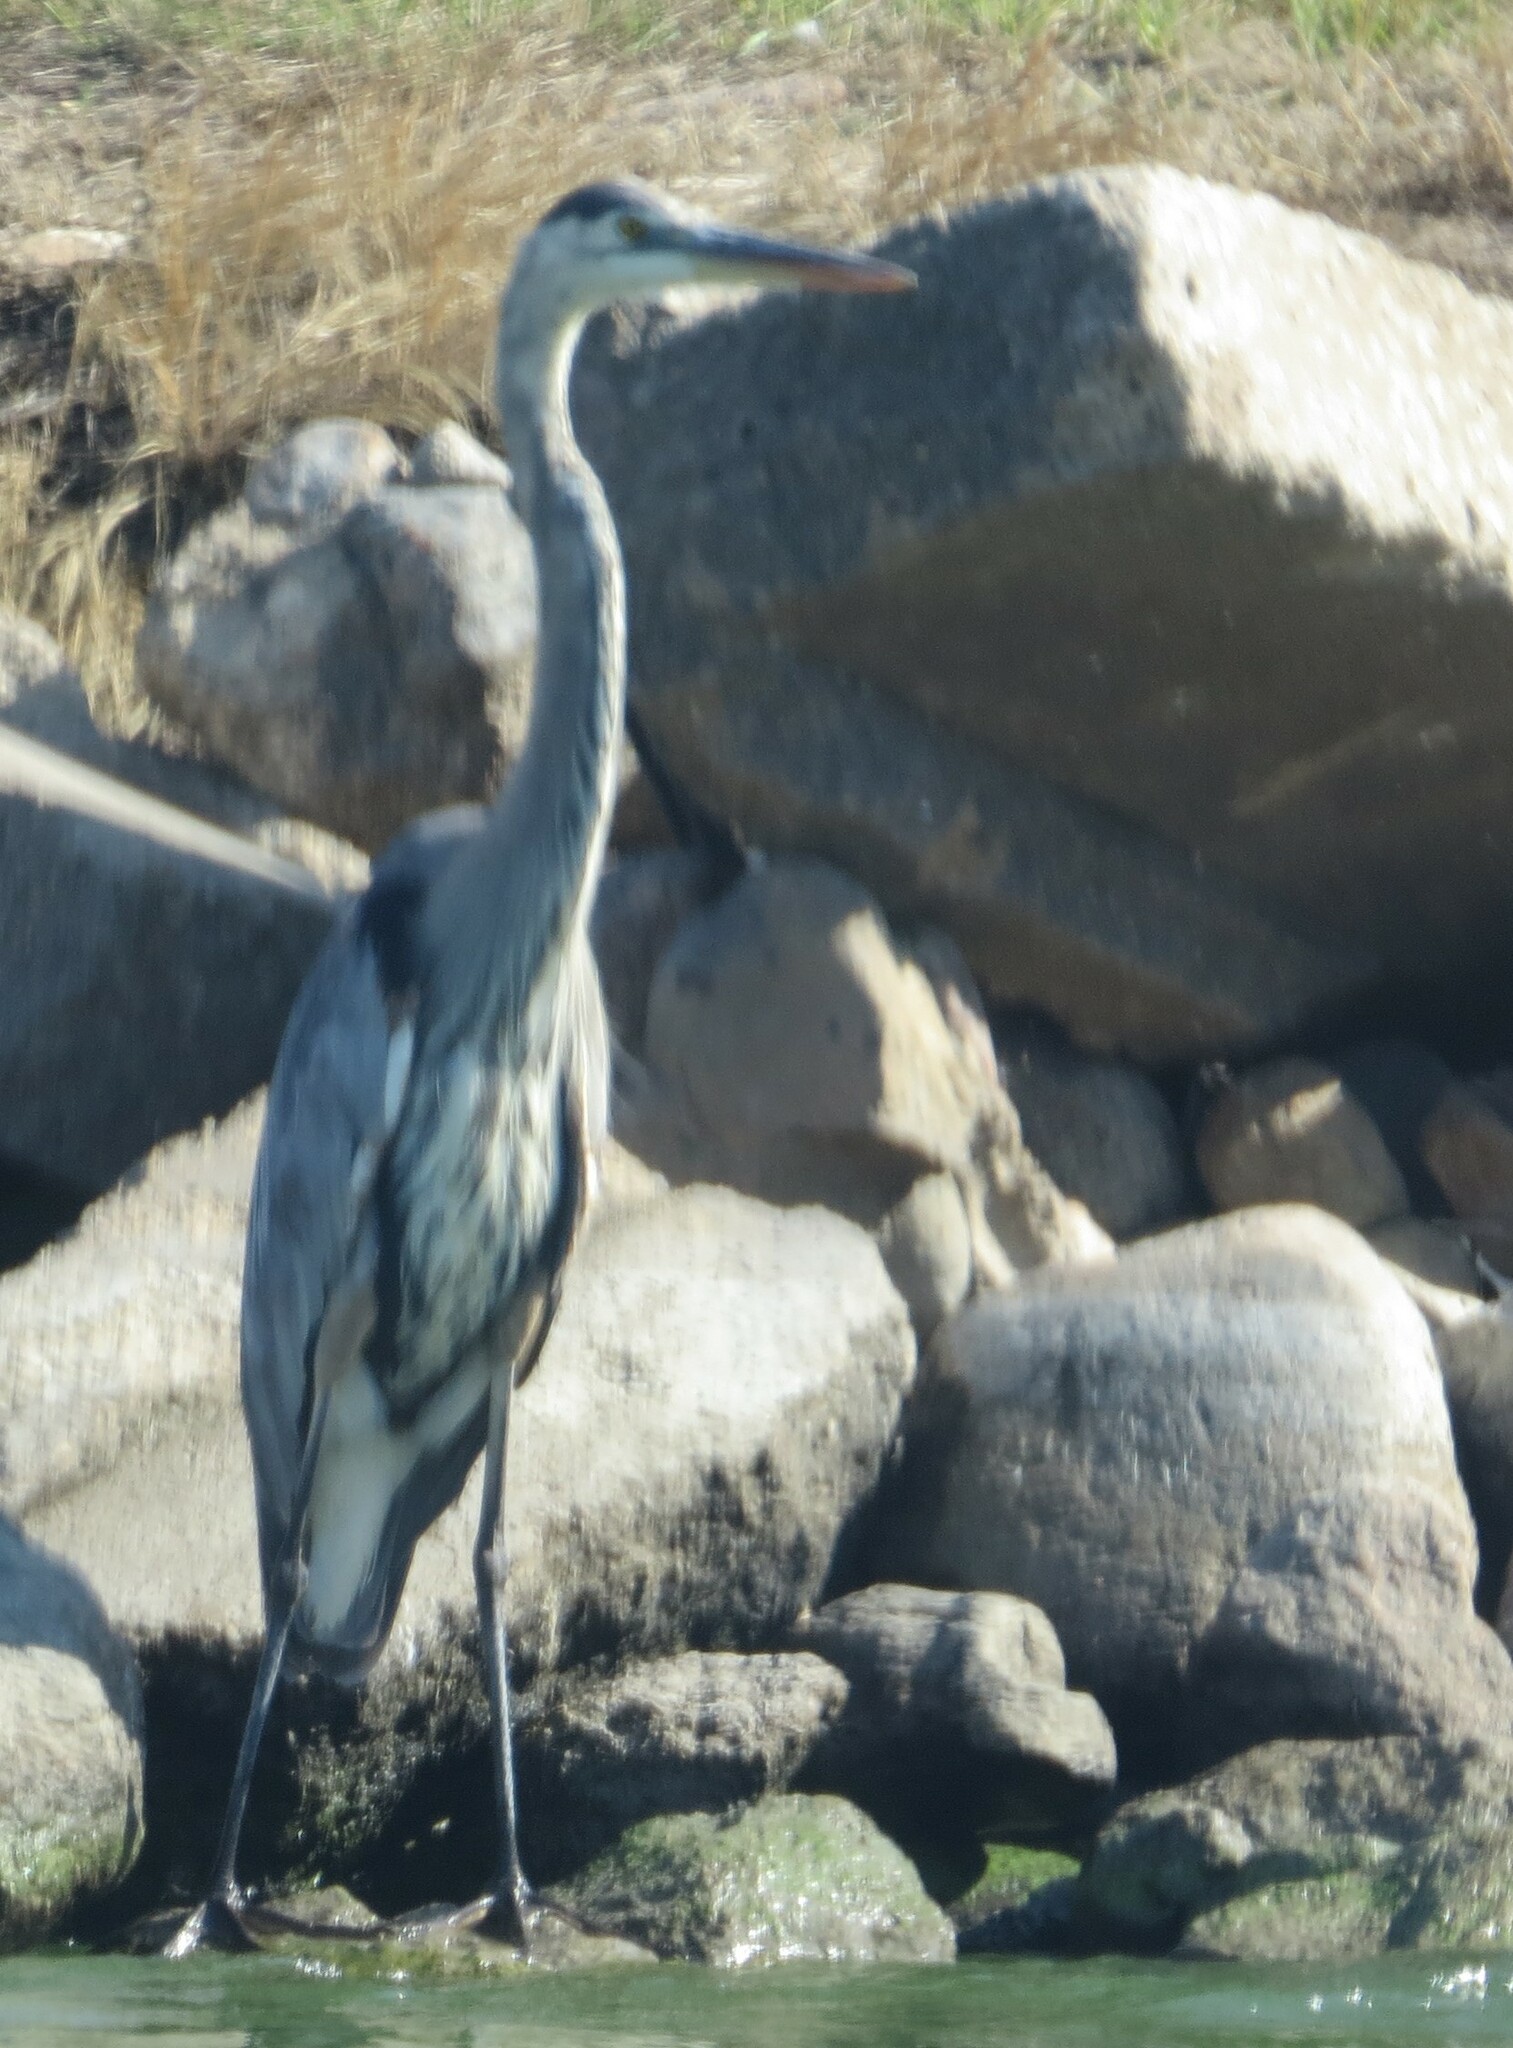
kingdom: Animalia
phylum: Chordata
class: Aves
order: Pelecaniformes
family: Ardeidae
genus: Ardea
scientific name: Ardea herodias
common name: Great blue heron
